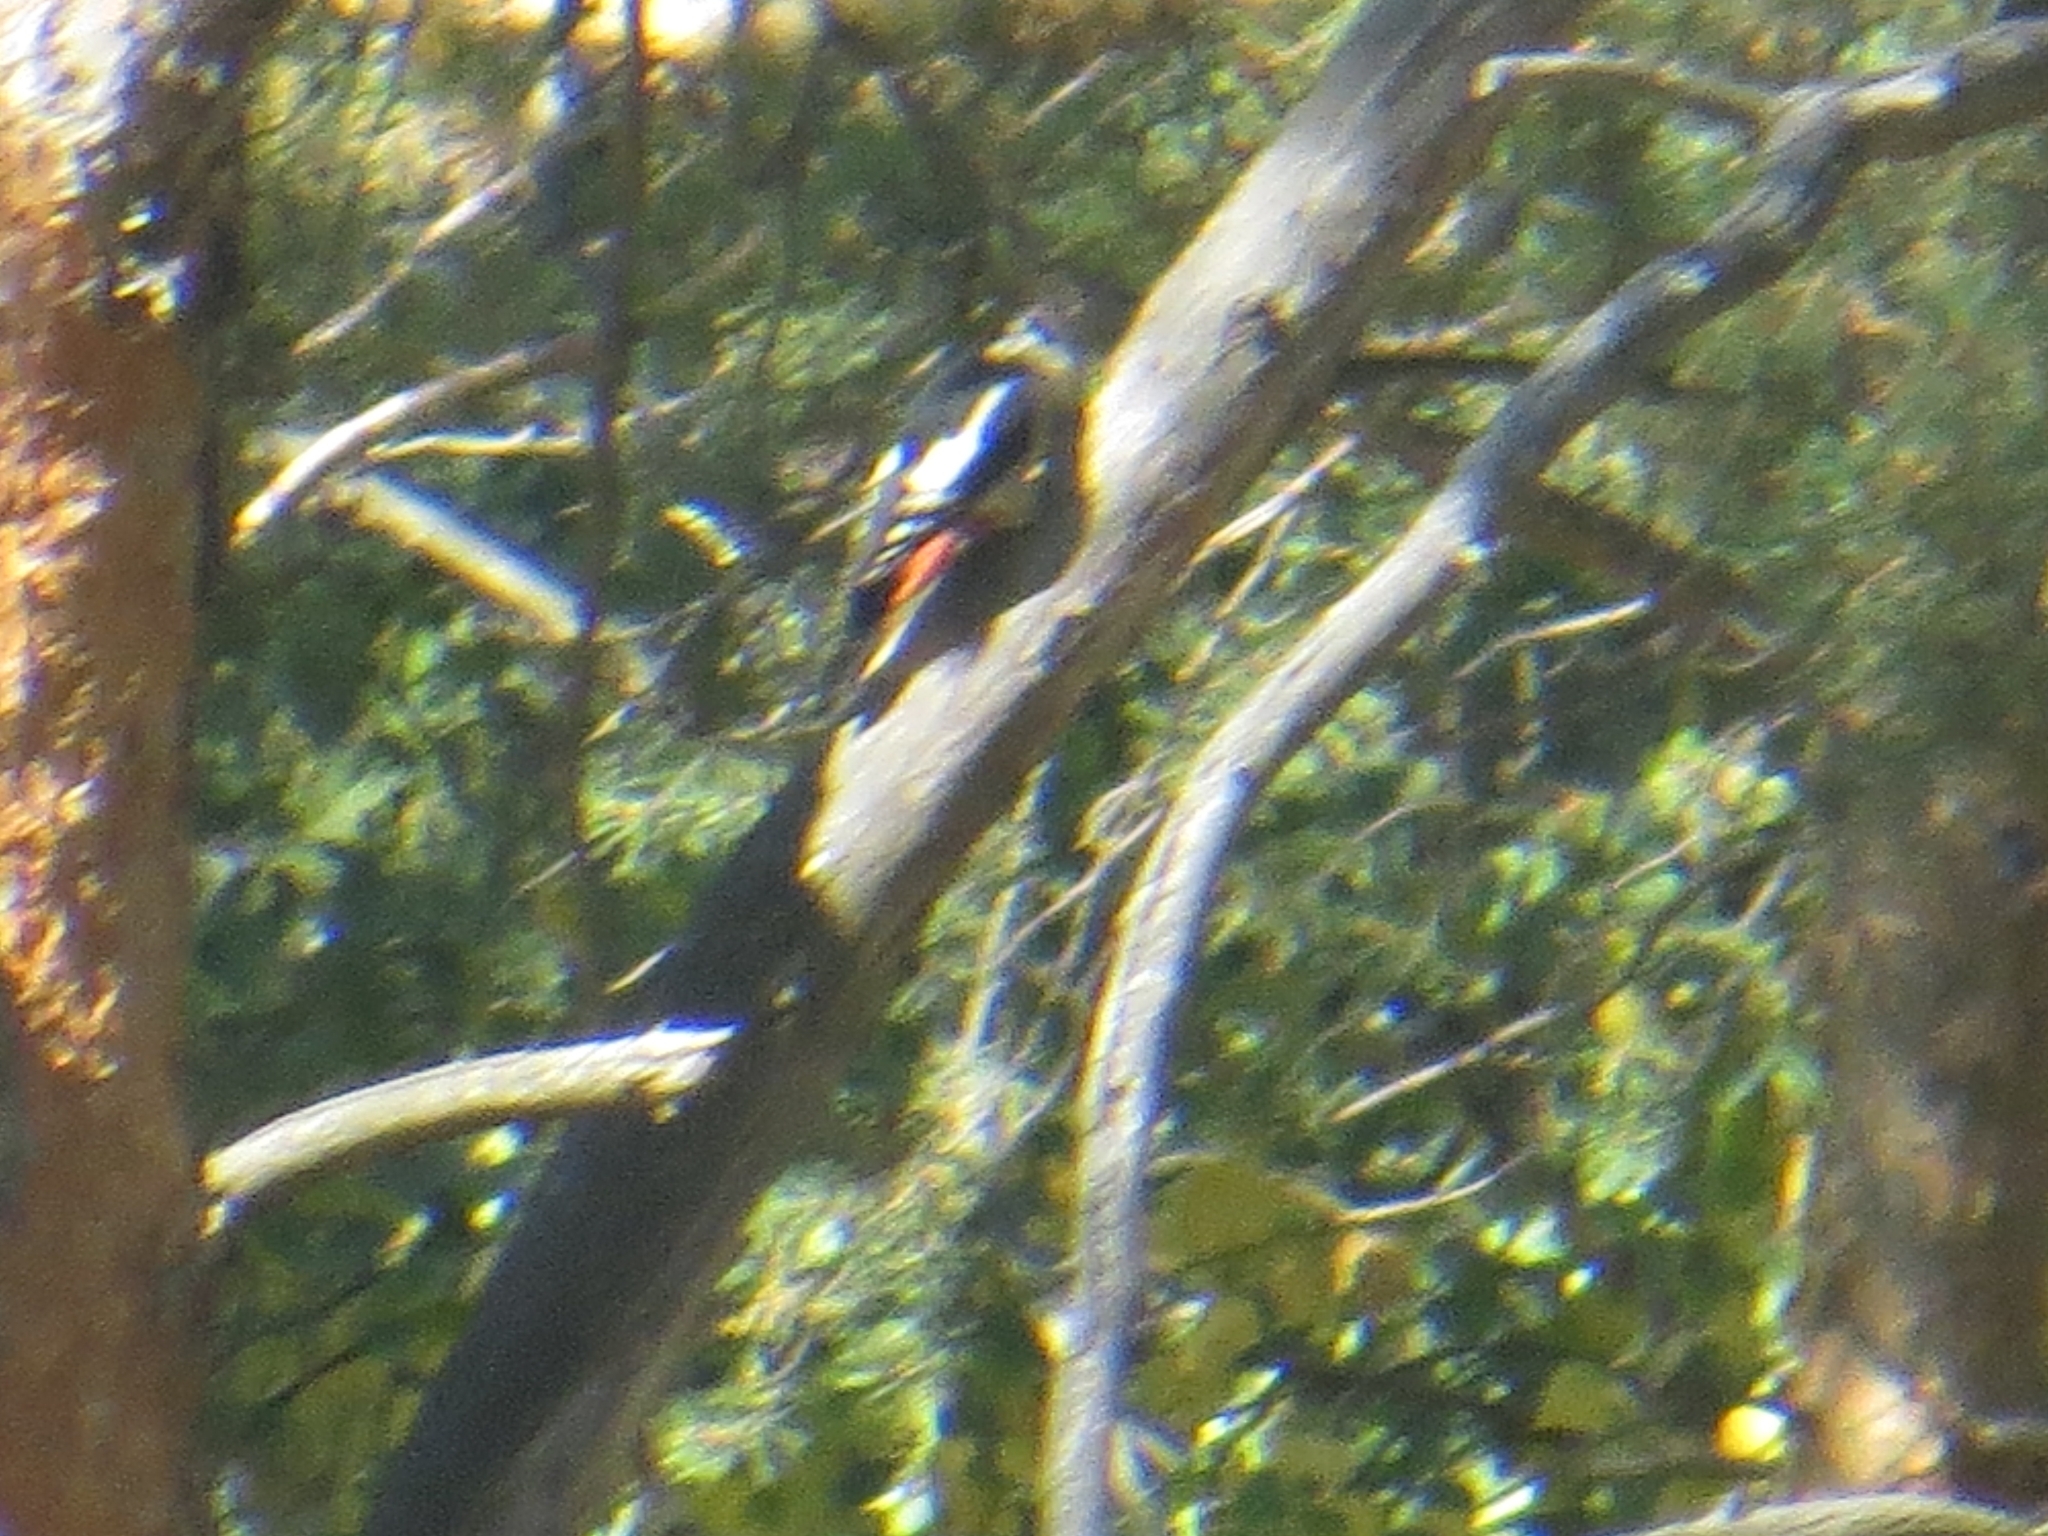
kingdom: Animalia
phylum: Chordata
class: Aves
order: Piciformes
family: Picidae
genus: Dendrocopos
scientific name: Dendrocopos major
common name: Great spotted woodpecker
